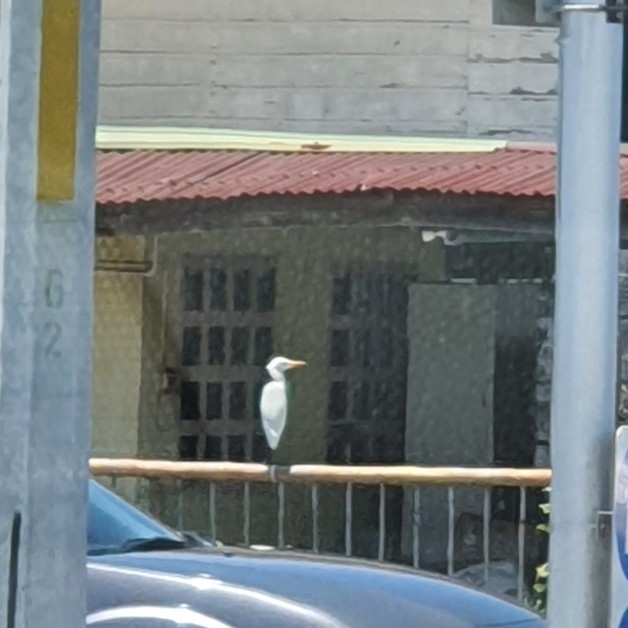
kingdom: Animalia
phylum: Chordata
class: Aves
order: Pelecaniformes
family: Ardeidae
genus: Bubulcus
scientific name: Bubulcus coromandus
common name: Eastern cattle egret
